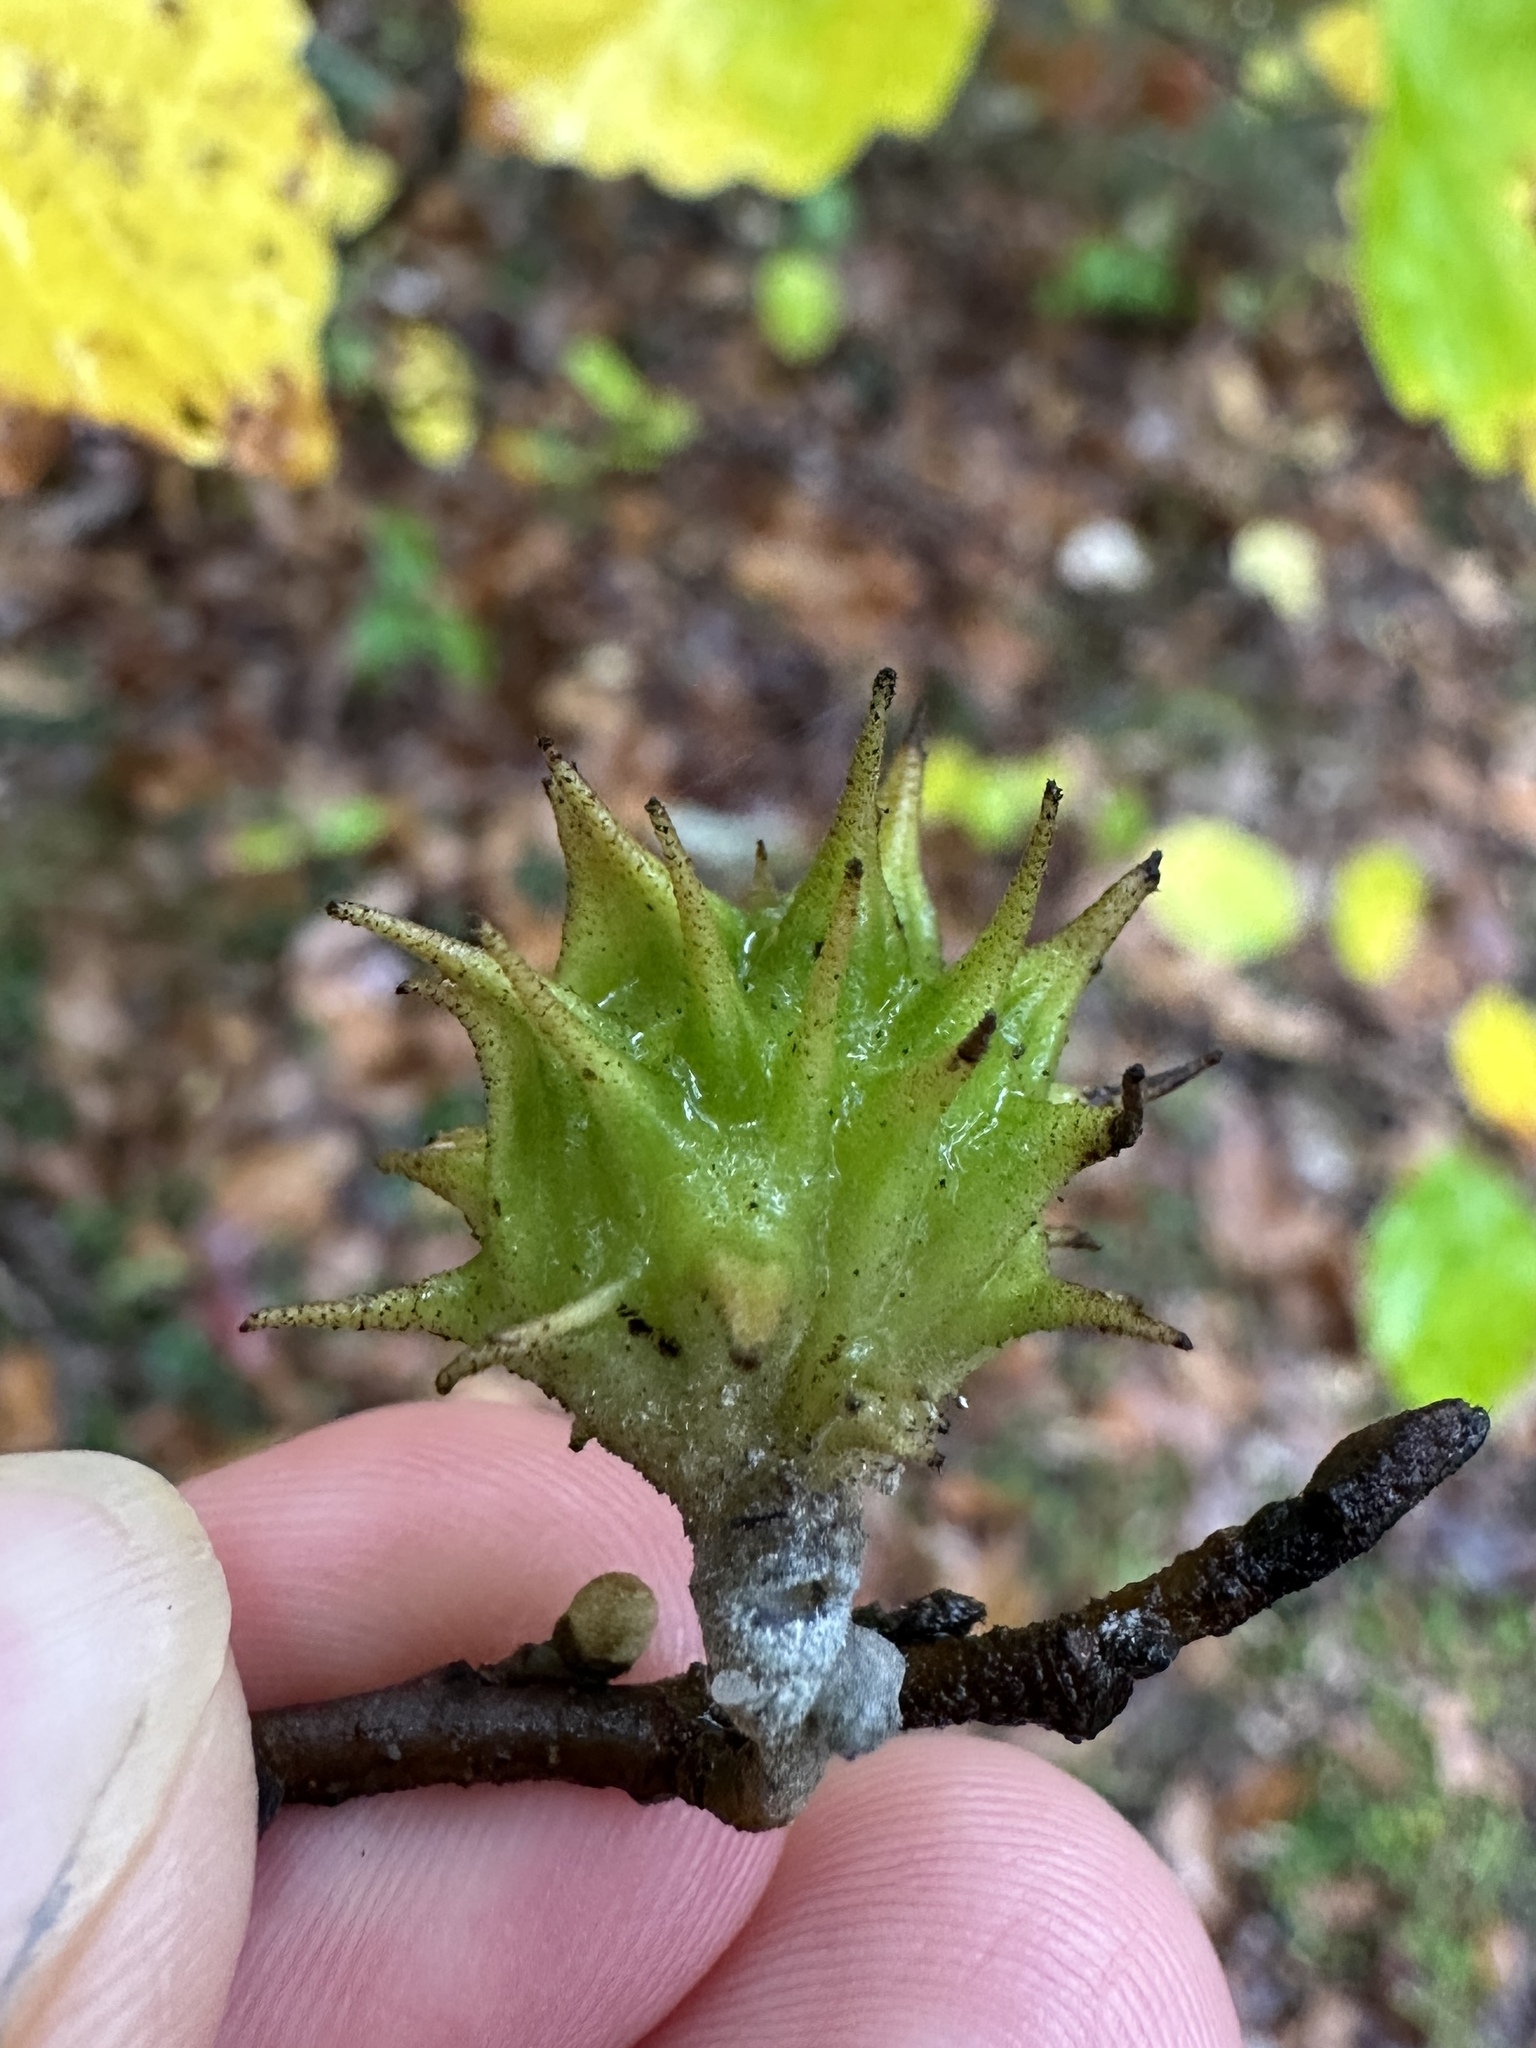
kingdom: Animalia
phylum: Arthropoda
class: Insecta
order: Hemiptera
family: Aphididae
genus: Hamamelistes
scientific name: Hamamelistes spinosus
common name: Witch hazel gall aphid
